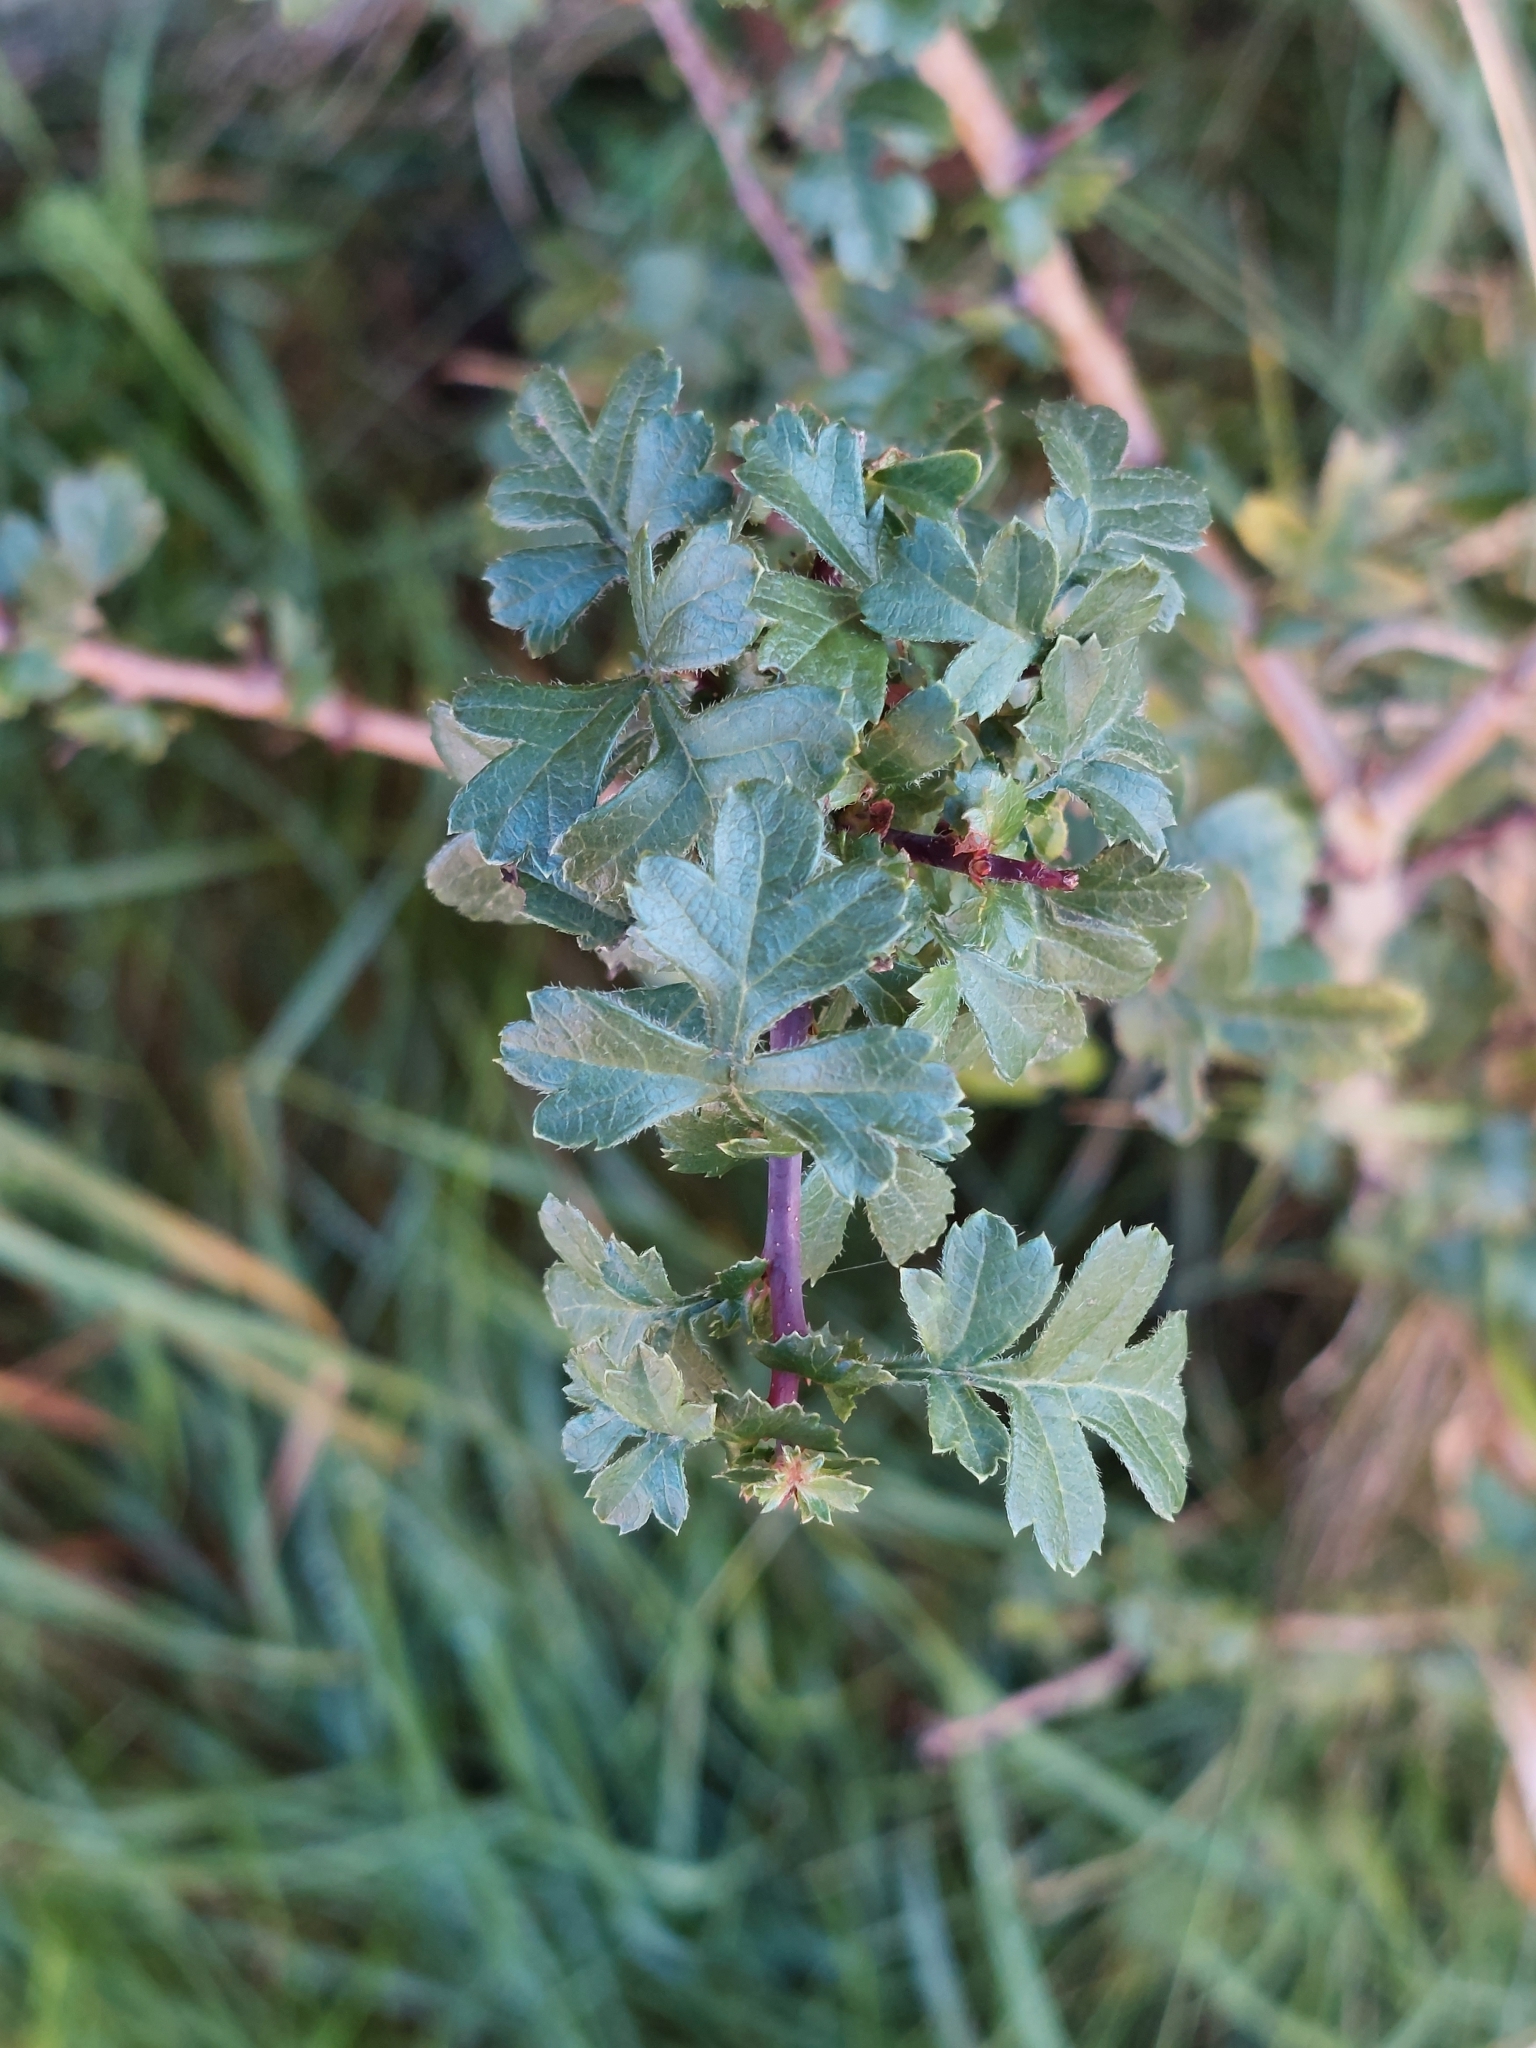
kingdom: Plantae
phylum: Tracheophyta
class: Magnoliopsida
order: Rosales
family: Rosaceae
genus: Crataegus
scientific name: Crataegus monogyna
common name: Hawthorn
